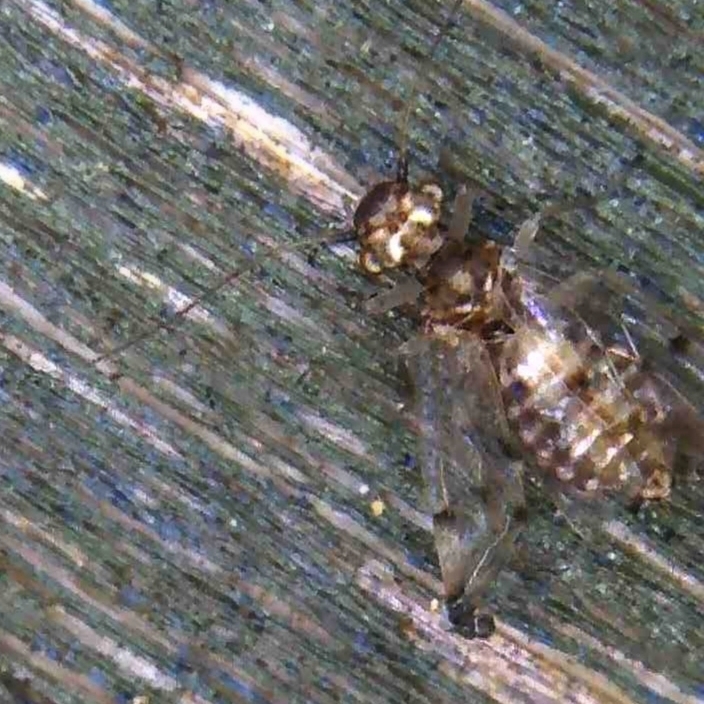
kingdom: Animalia
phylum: Arthropoda
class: Insecta
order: Psocodea
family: Ectopsocidae
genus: Ectopsocus
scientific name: Ectopsocus petersi
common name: Medium-sized bark louse
